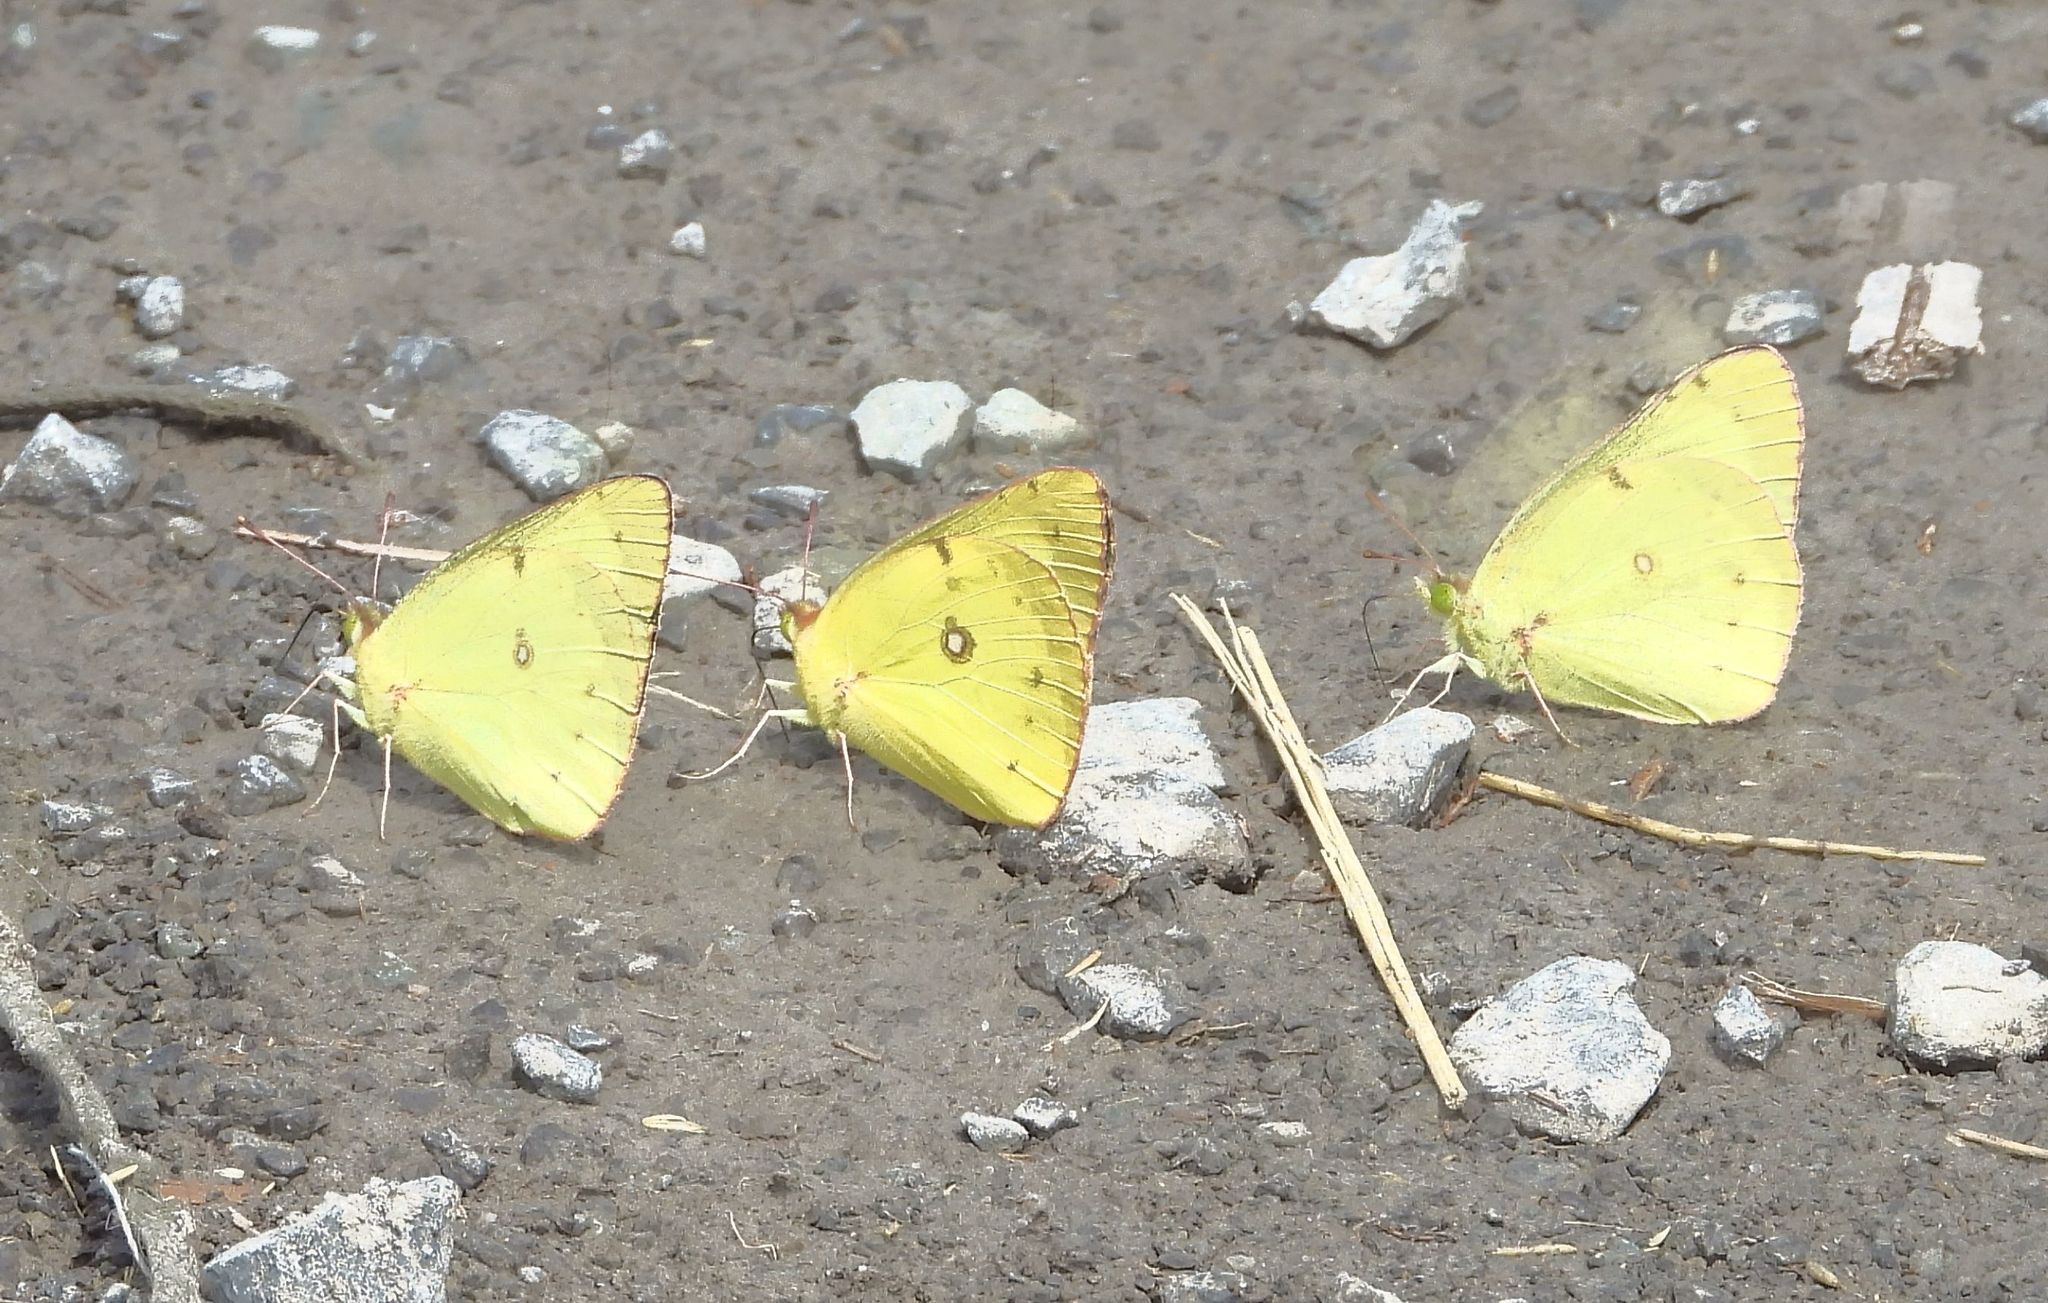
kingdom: Animalia
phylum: Arthropoda
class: Insecta
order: Lepidoptera
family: Pieridae
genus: Colias
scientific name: Colias philodice
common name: Clouded sulphur
